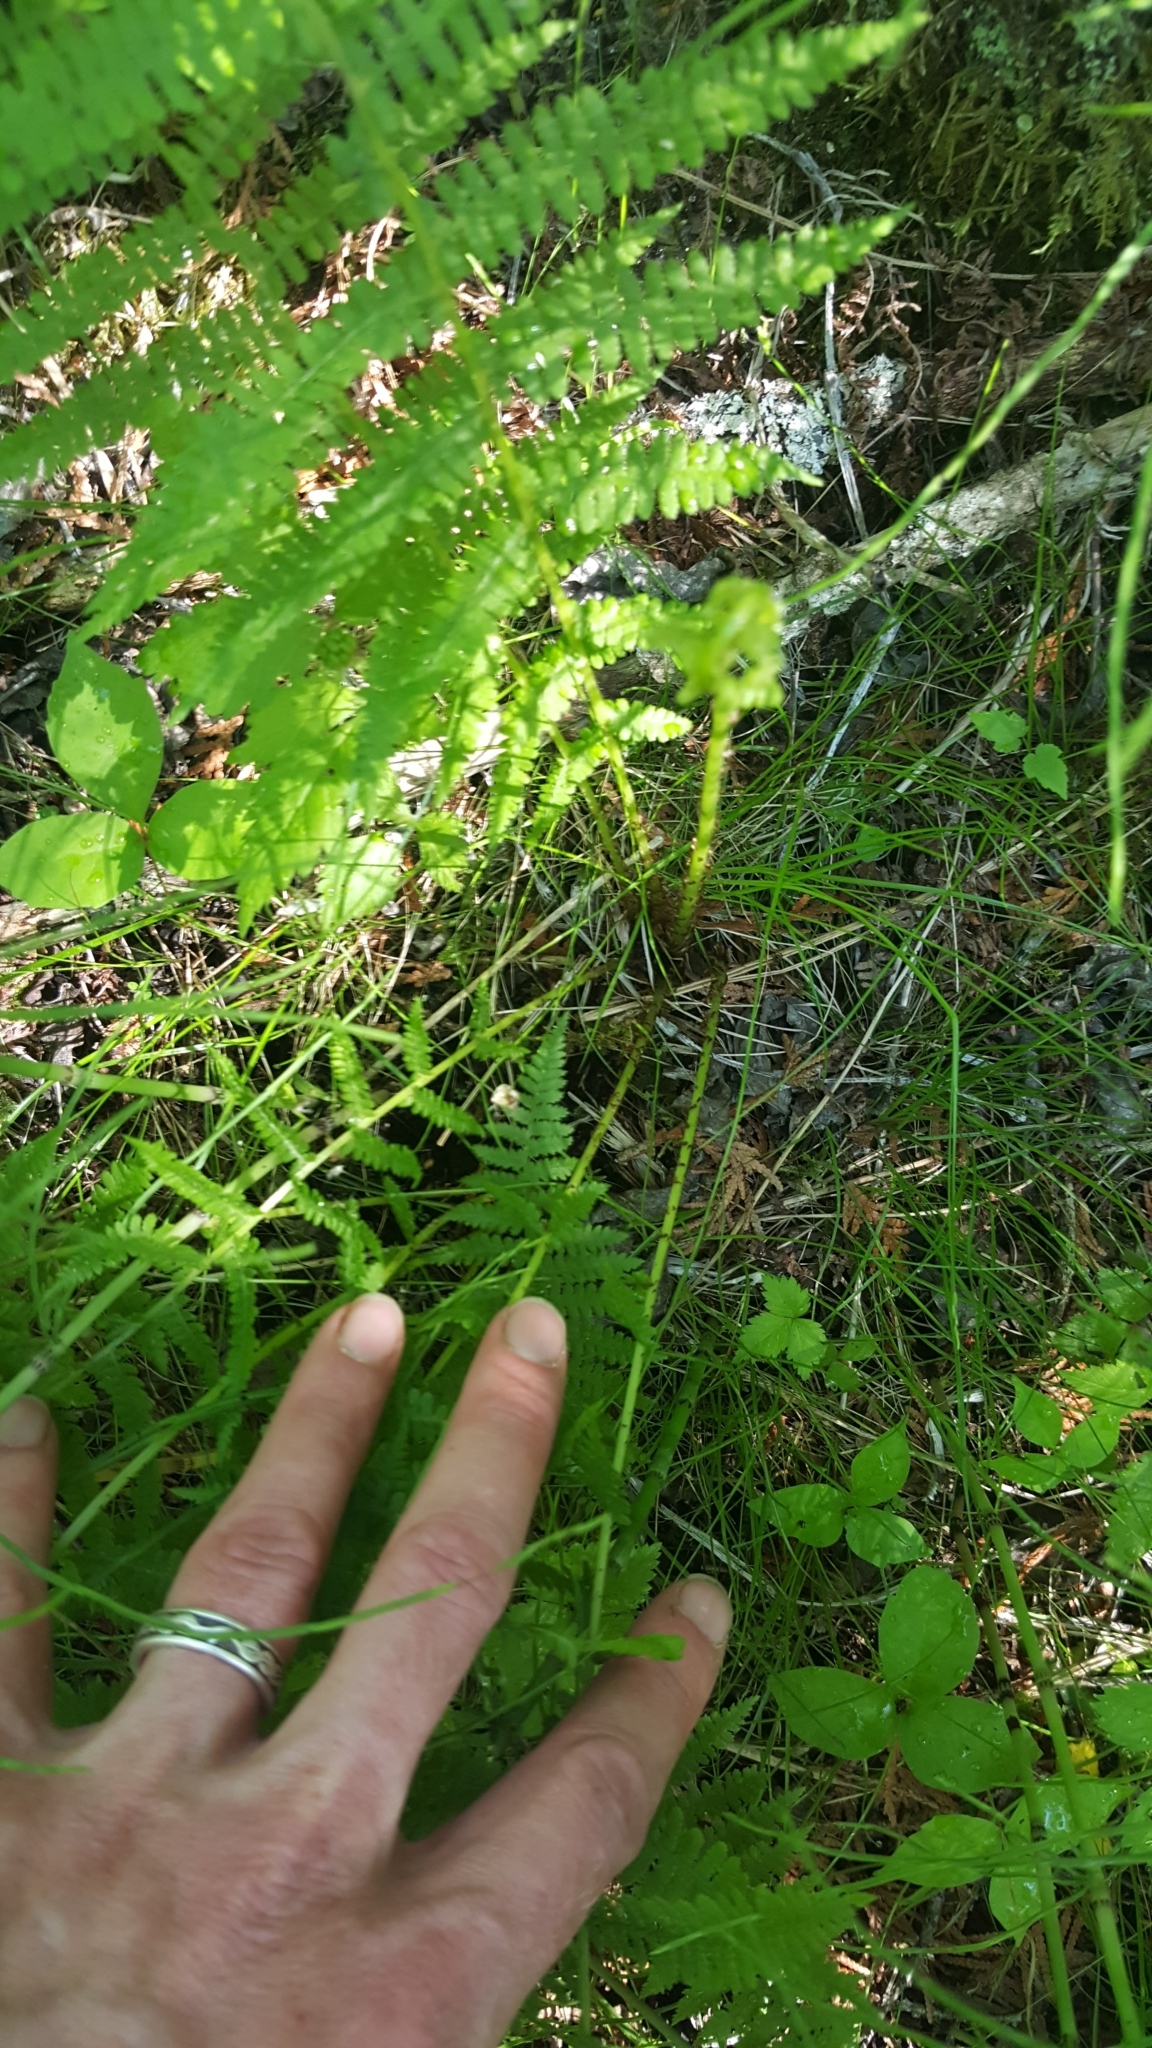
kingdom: Plantae
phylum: Tracheophyta
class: Polypodiopsida
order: Polypodiales
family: Athyriaceae
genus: Athyrium
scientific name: Athyrium angustum
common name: Northern lady fern
